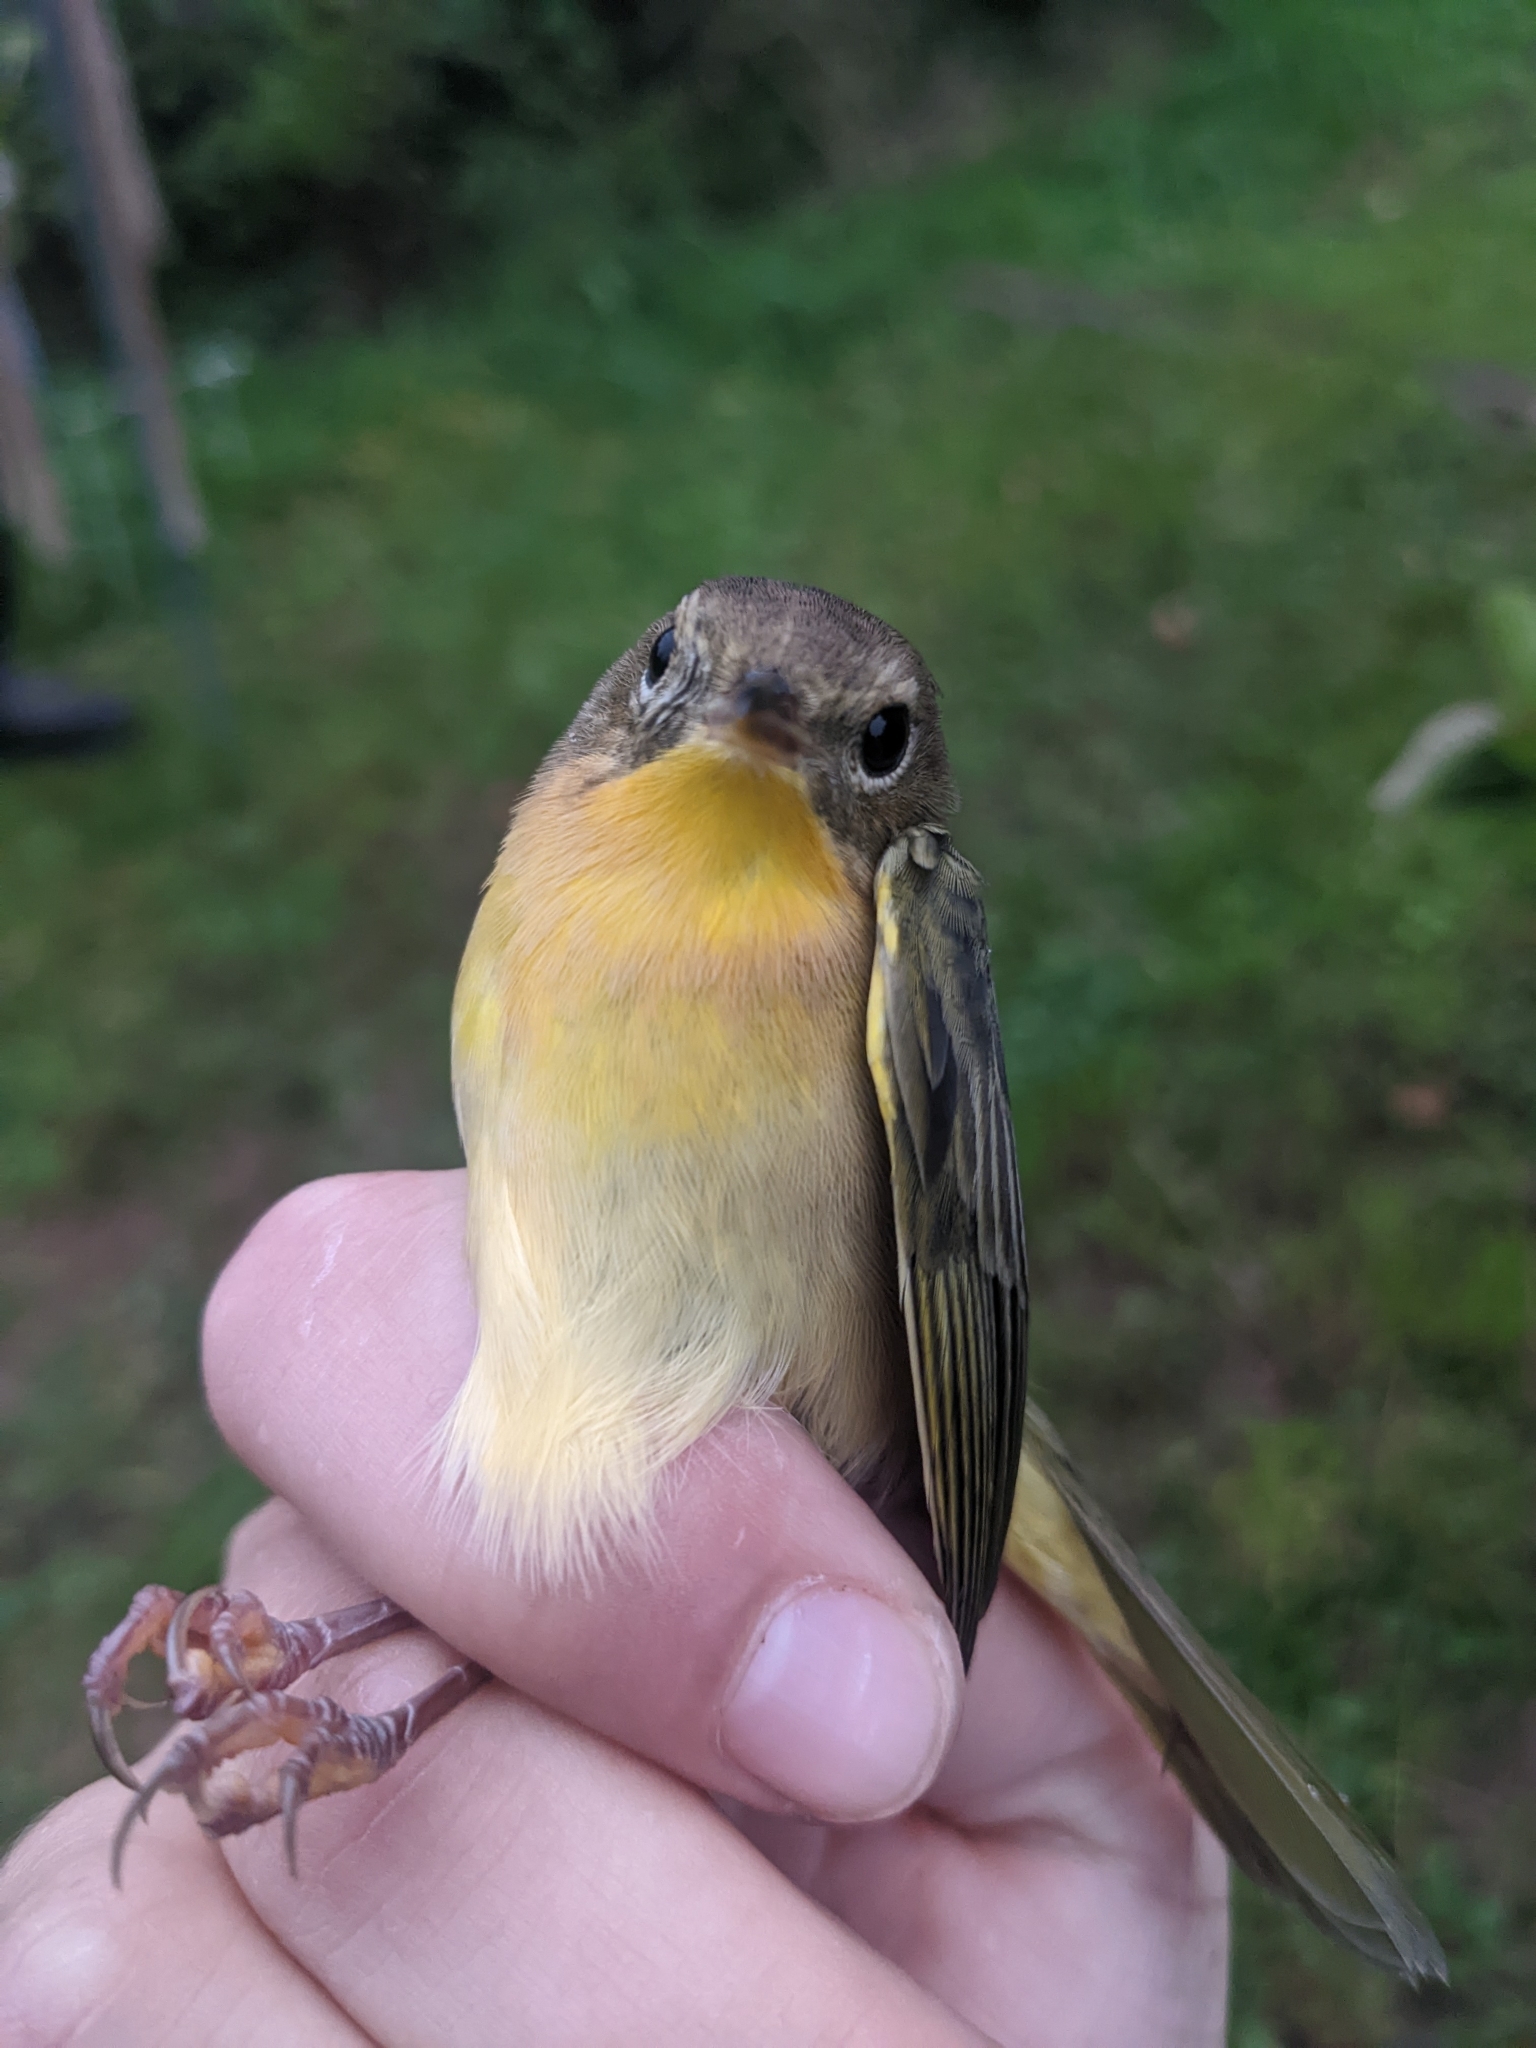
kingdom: Animalia
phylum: Chordata
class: Aves
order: Passeriformes
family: Parulidae
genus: Geothlypis
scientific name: Geothlypis trichas
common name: Common yellowthroat
